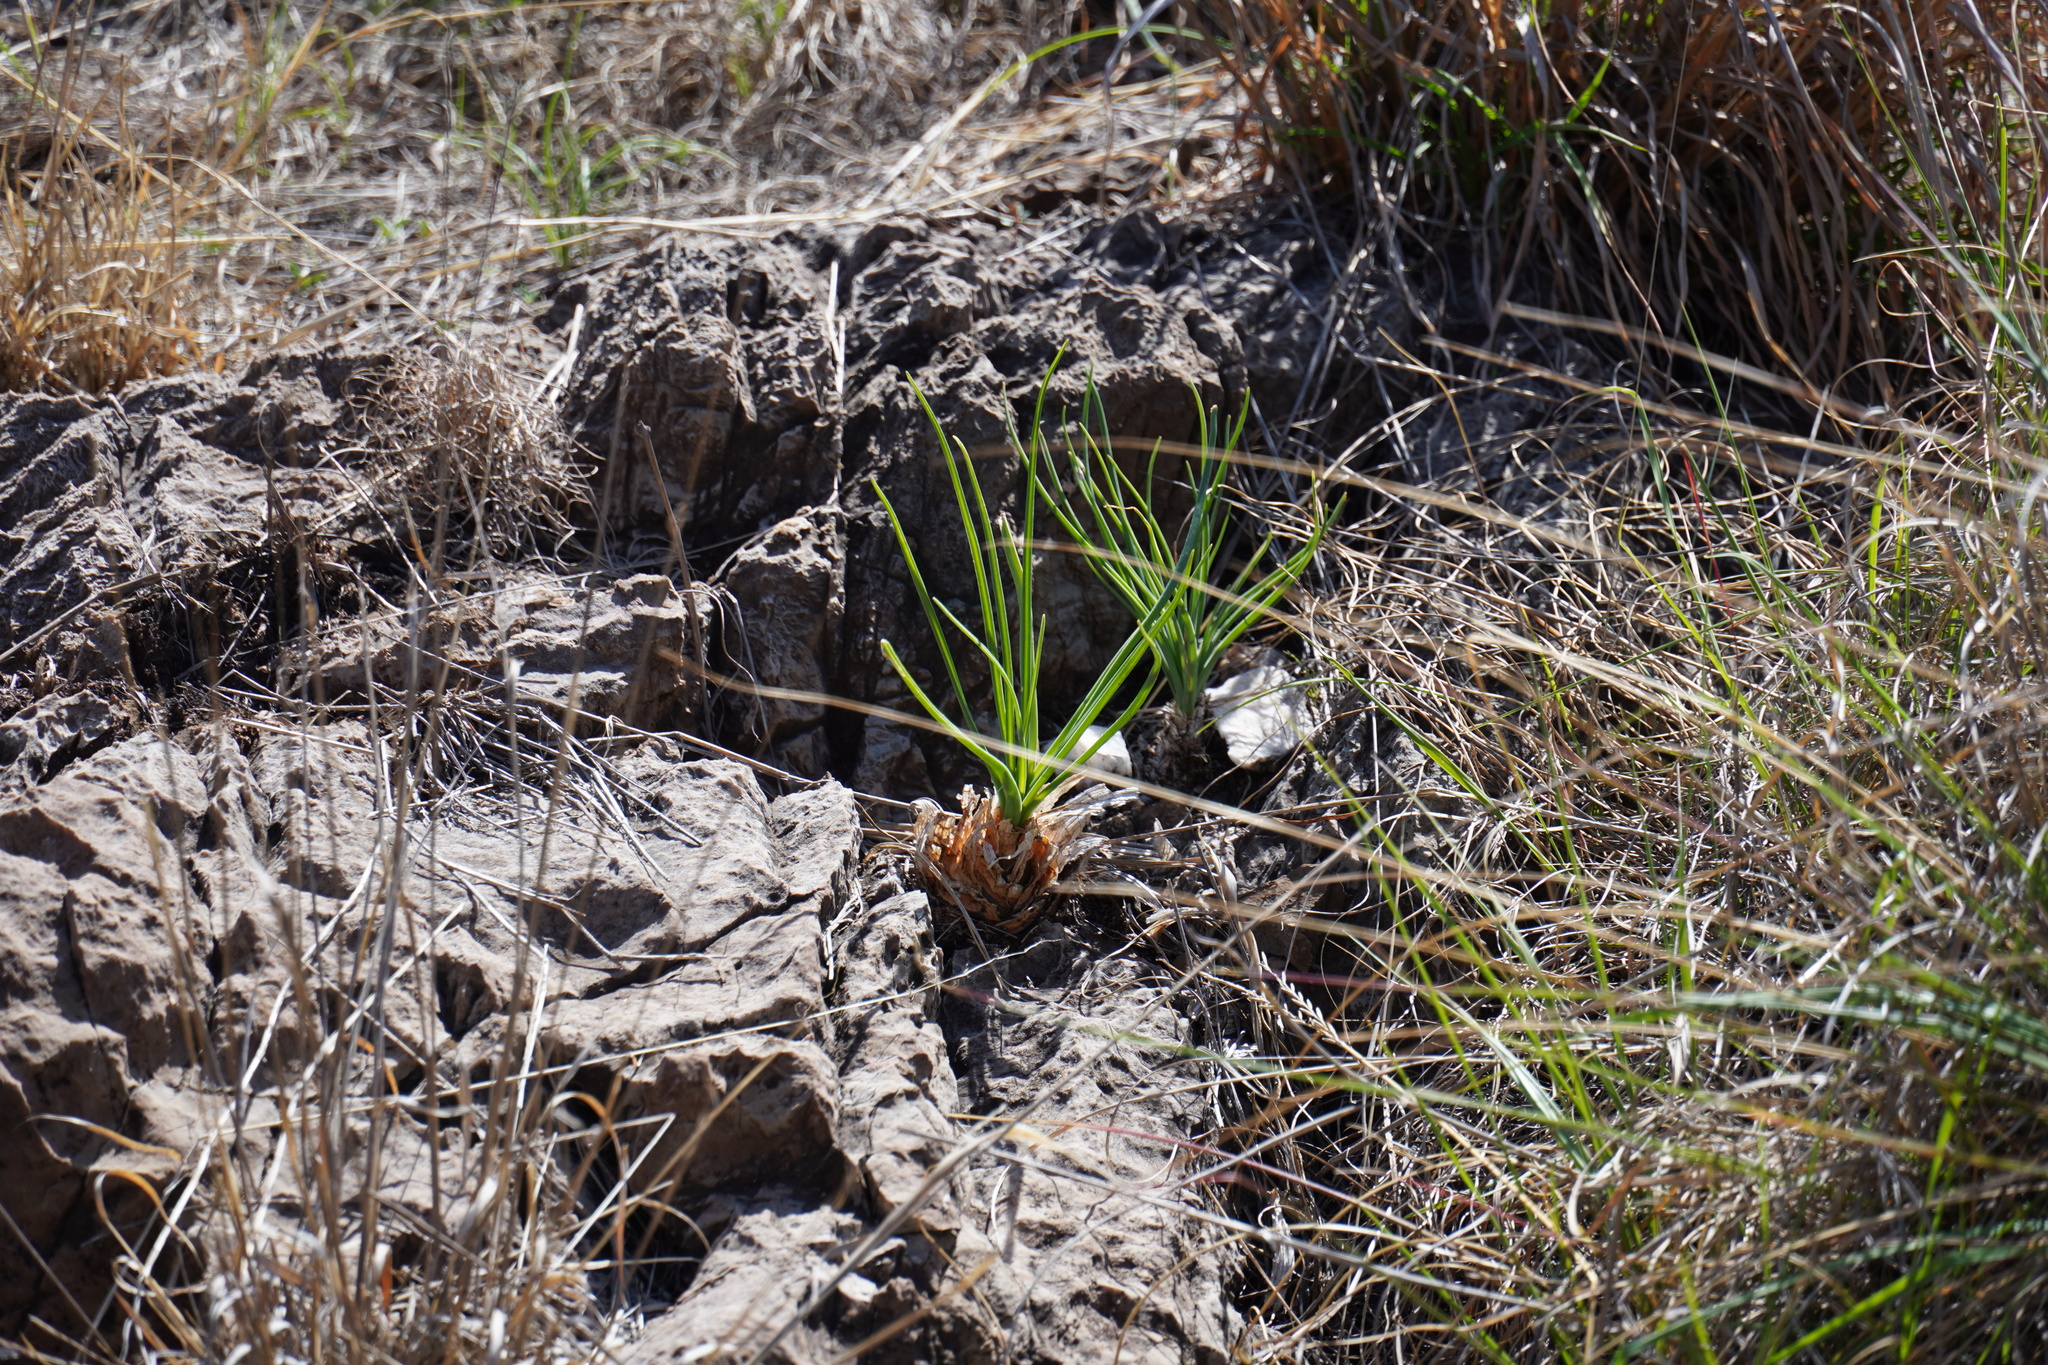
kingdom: Plantae
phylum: Tracheophyta
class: Liliopsida
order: Asparagales
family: Asparagaceae
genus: Albuca
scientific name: Albuca setosa
